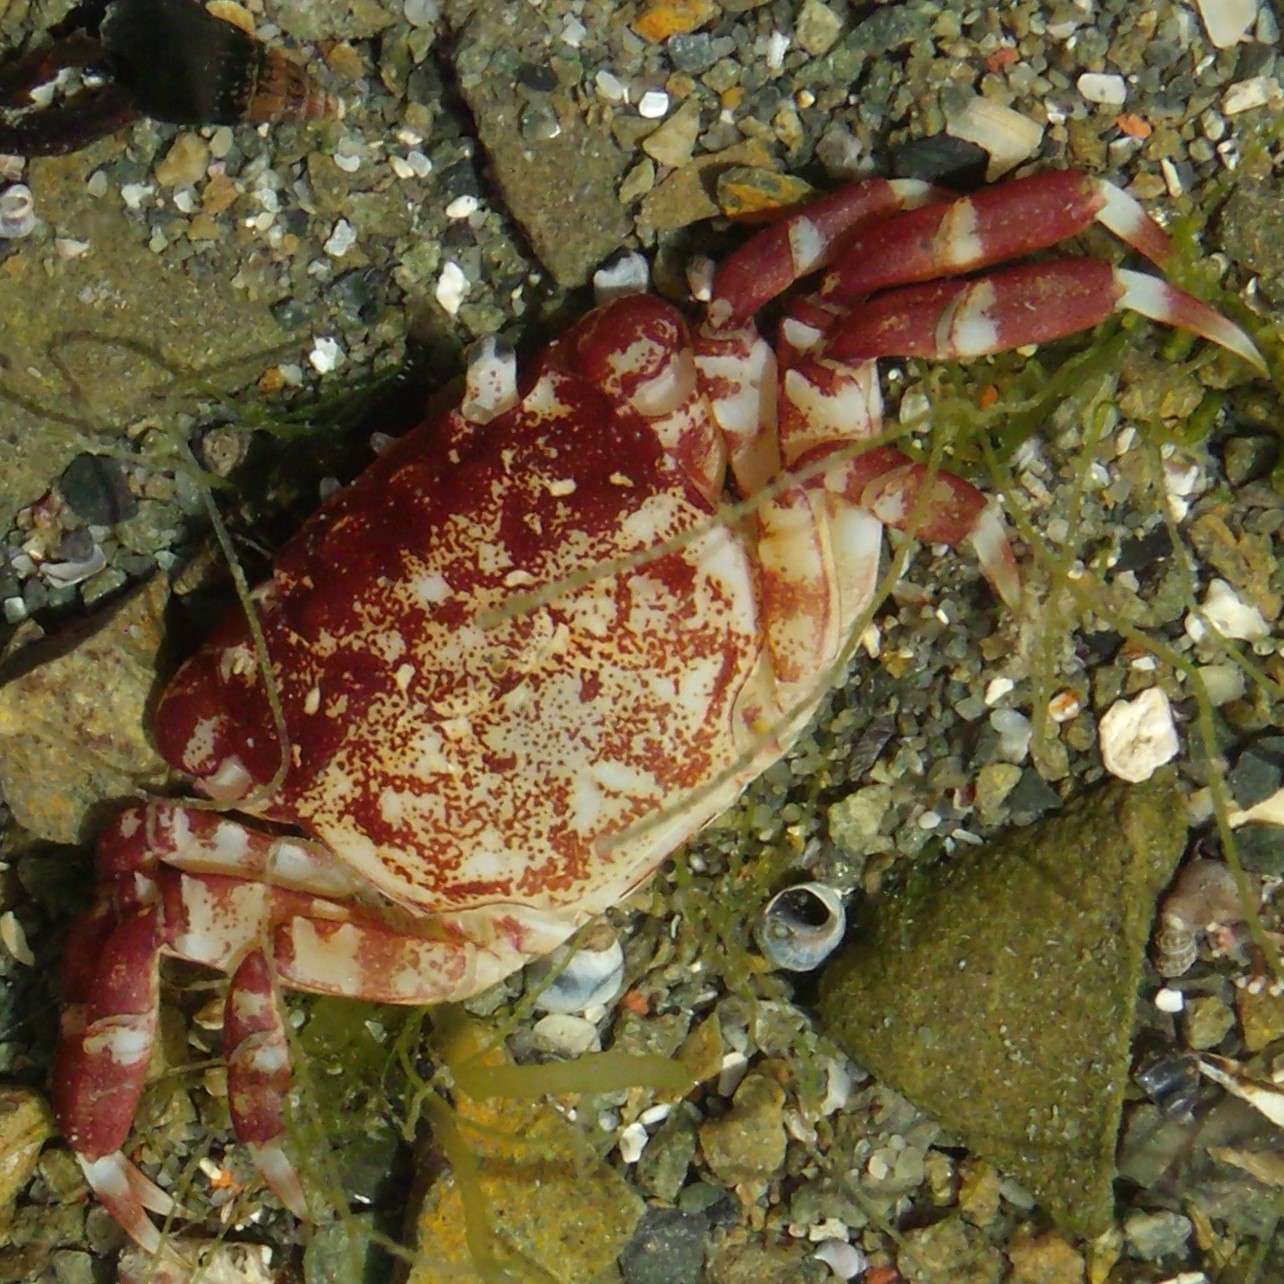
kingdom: Animalia
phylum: Arthropoda
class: Malacostraca
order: Decapoda
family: Varunidae
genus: Hemigrapsus
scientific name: Hemigrapsus sexdentatus
